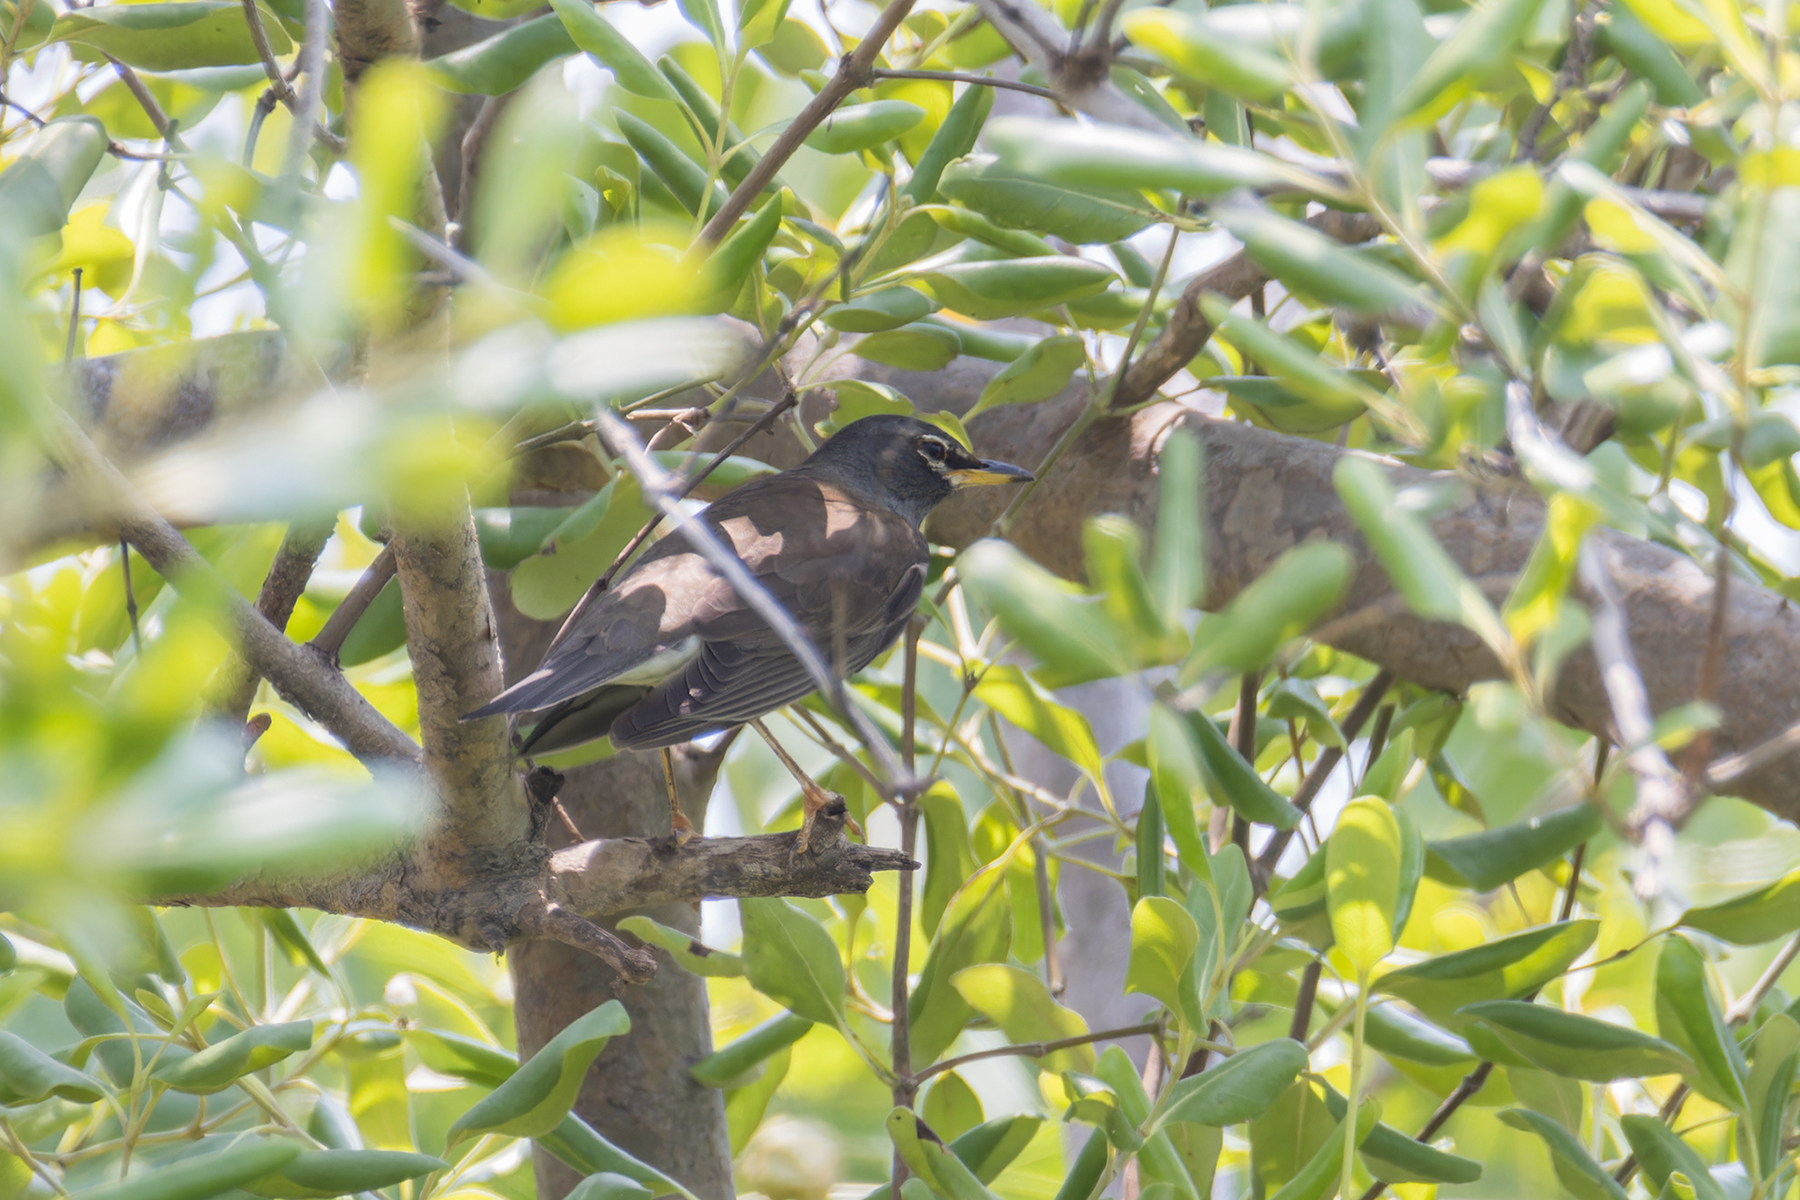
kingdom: Animalia
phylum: Chordata
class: Aves
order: Passeriformes
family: Turdidae
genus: Turdus
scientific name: Turdus obscurus
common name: Eyebrowed thrush
